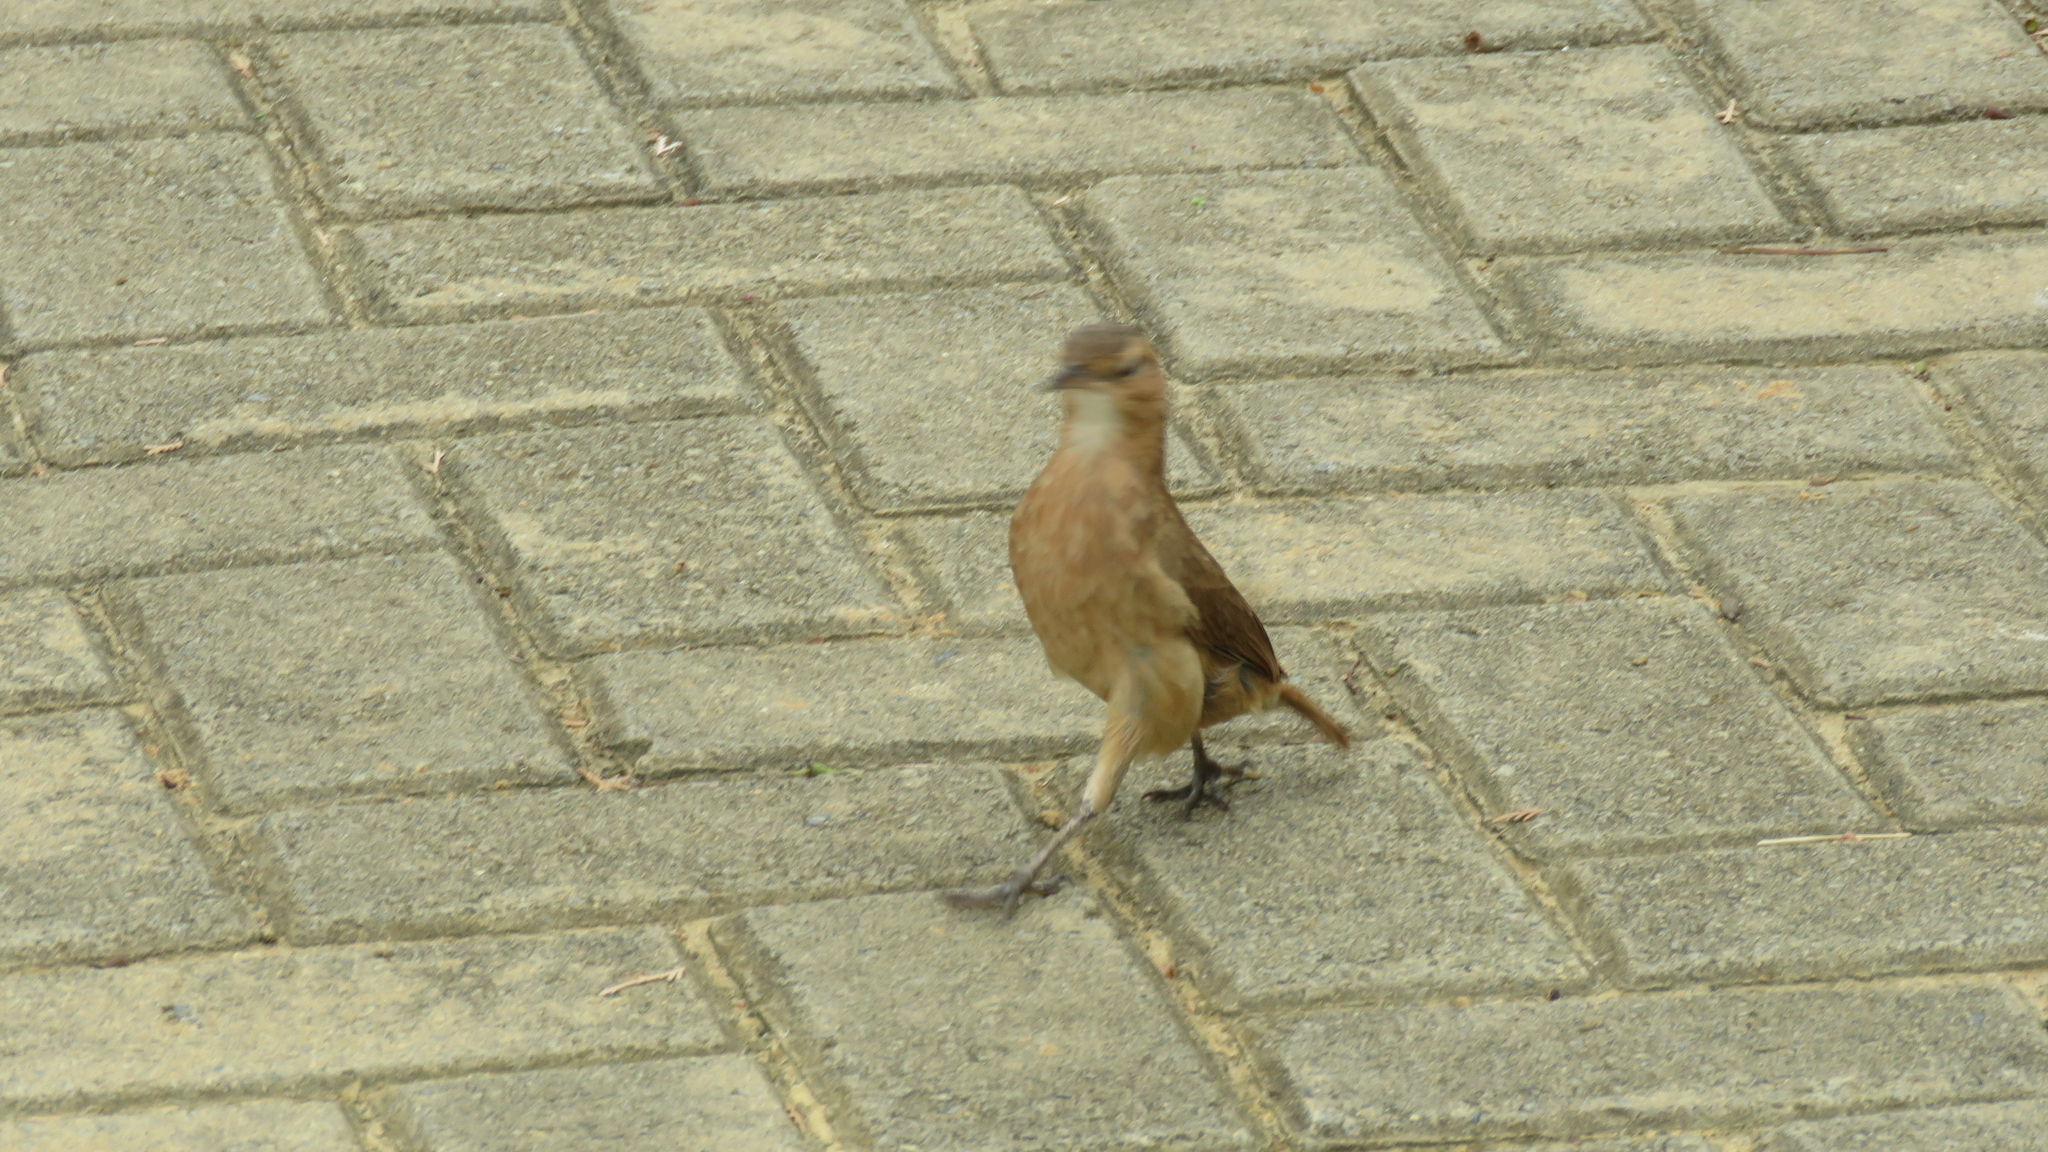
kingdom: Animalia
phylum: Chordata
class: Aves
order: Passeriformes
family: Furnariidae
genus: Furnarius
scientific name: Furnarius rufus
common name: Rufous hornero
